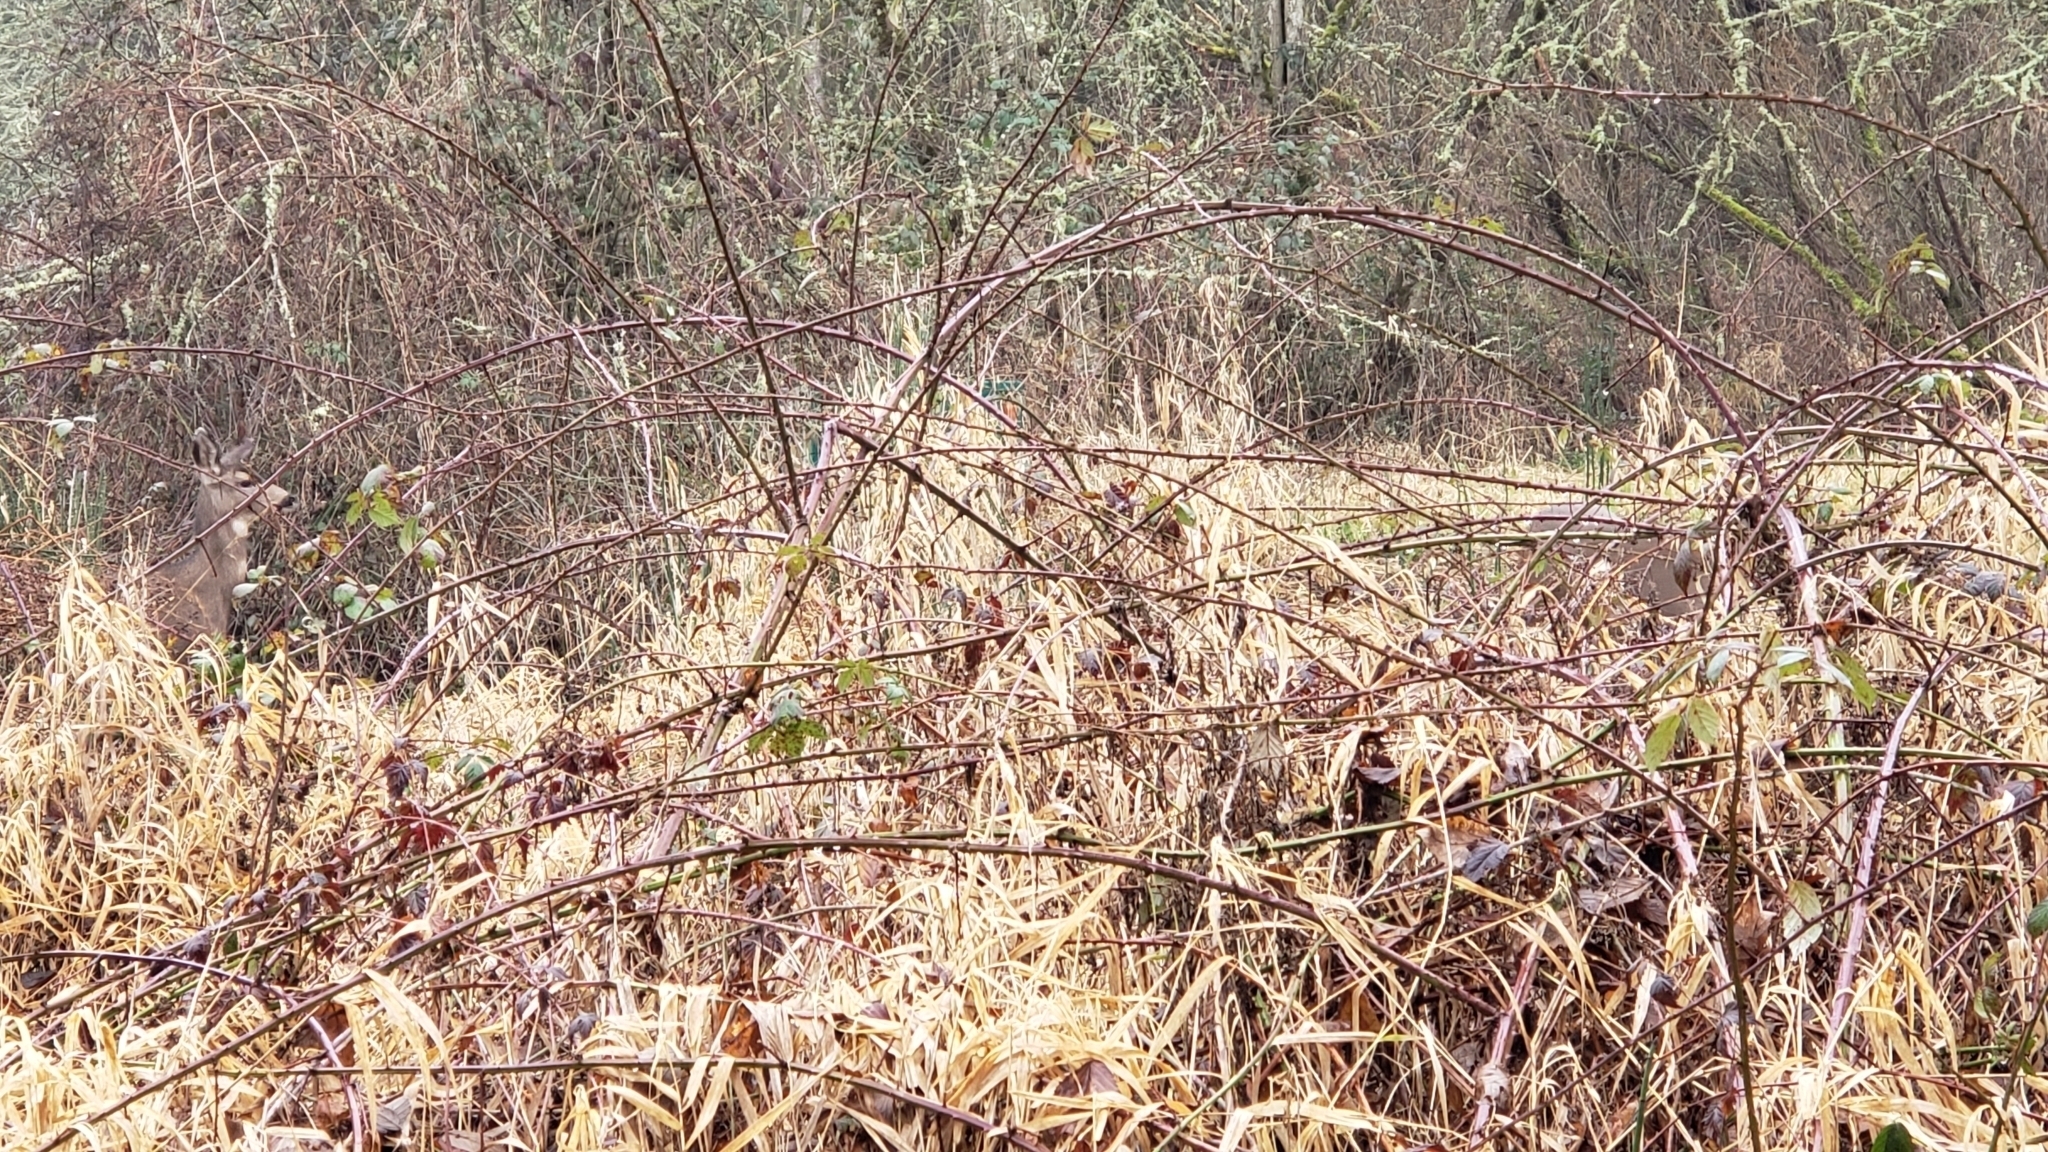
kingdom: Animalia
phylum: Chordata
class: Mammalia
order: Artiodactyla
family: Cervidae
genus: Odocoileus
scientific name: Odocoileus hemionus
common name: Mule deer
